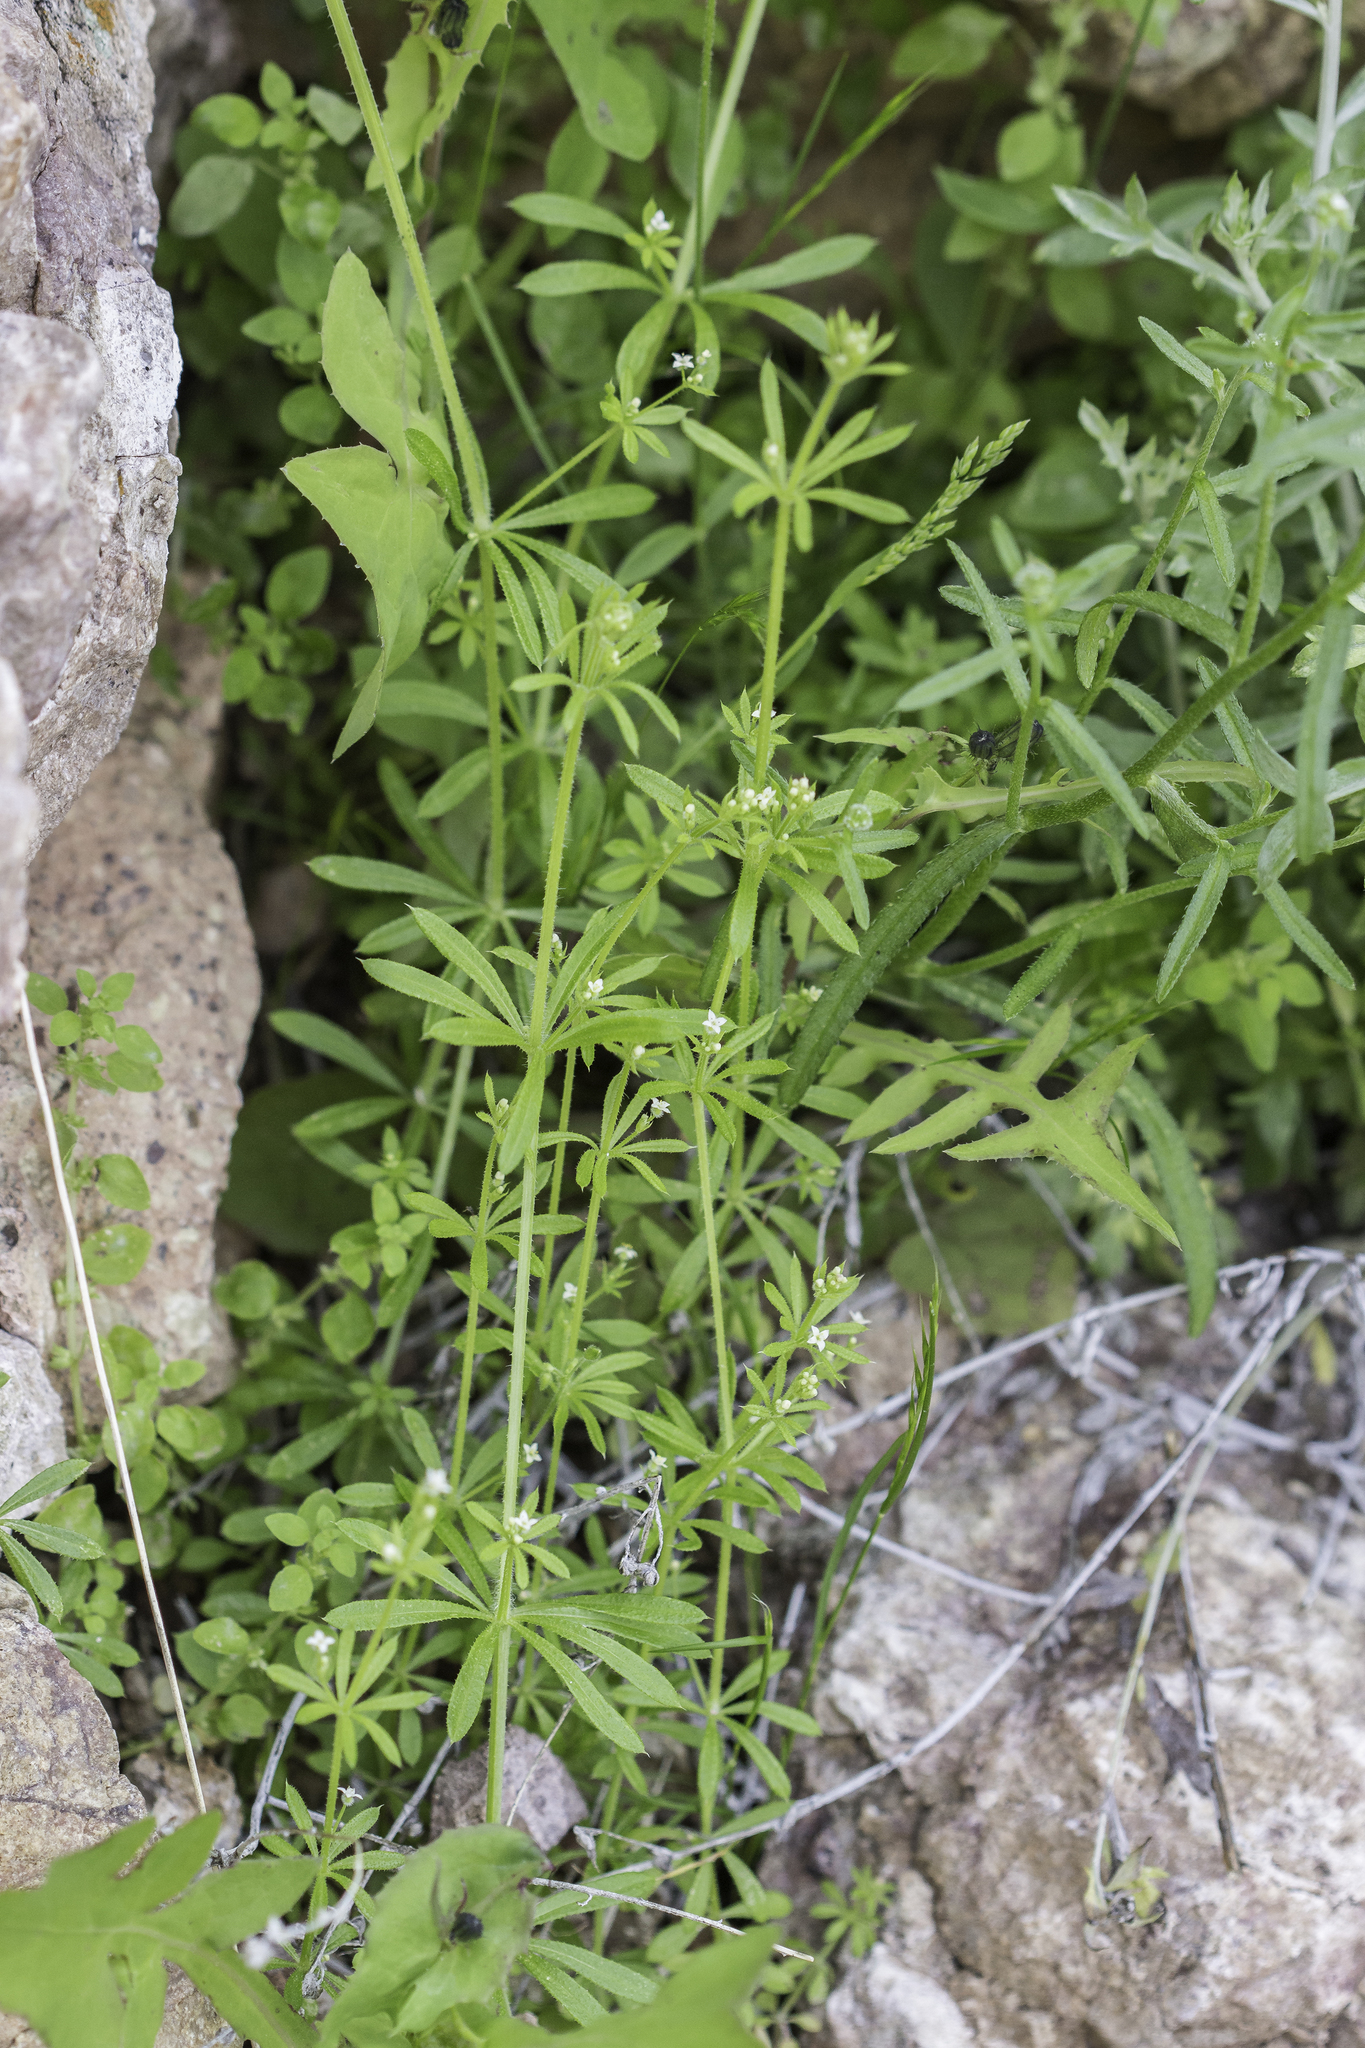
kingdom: Plantae
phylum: Tracheophyta
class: Magnoliopsida
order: Gentianales
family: Rubiaceae
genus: Galium
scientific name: Galium aparine
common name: Cleavers
